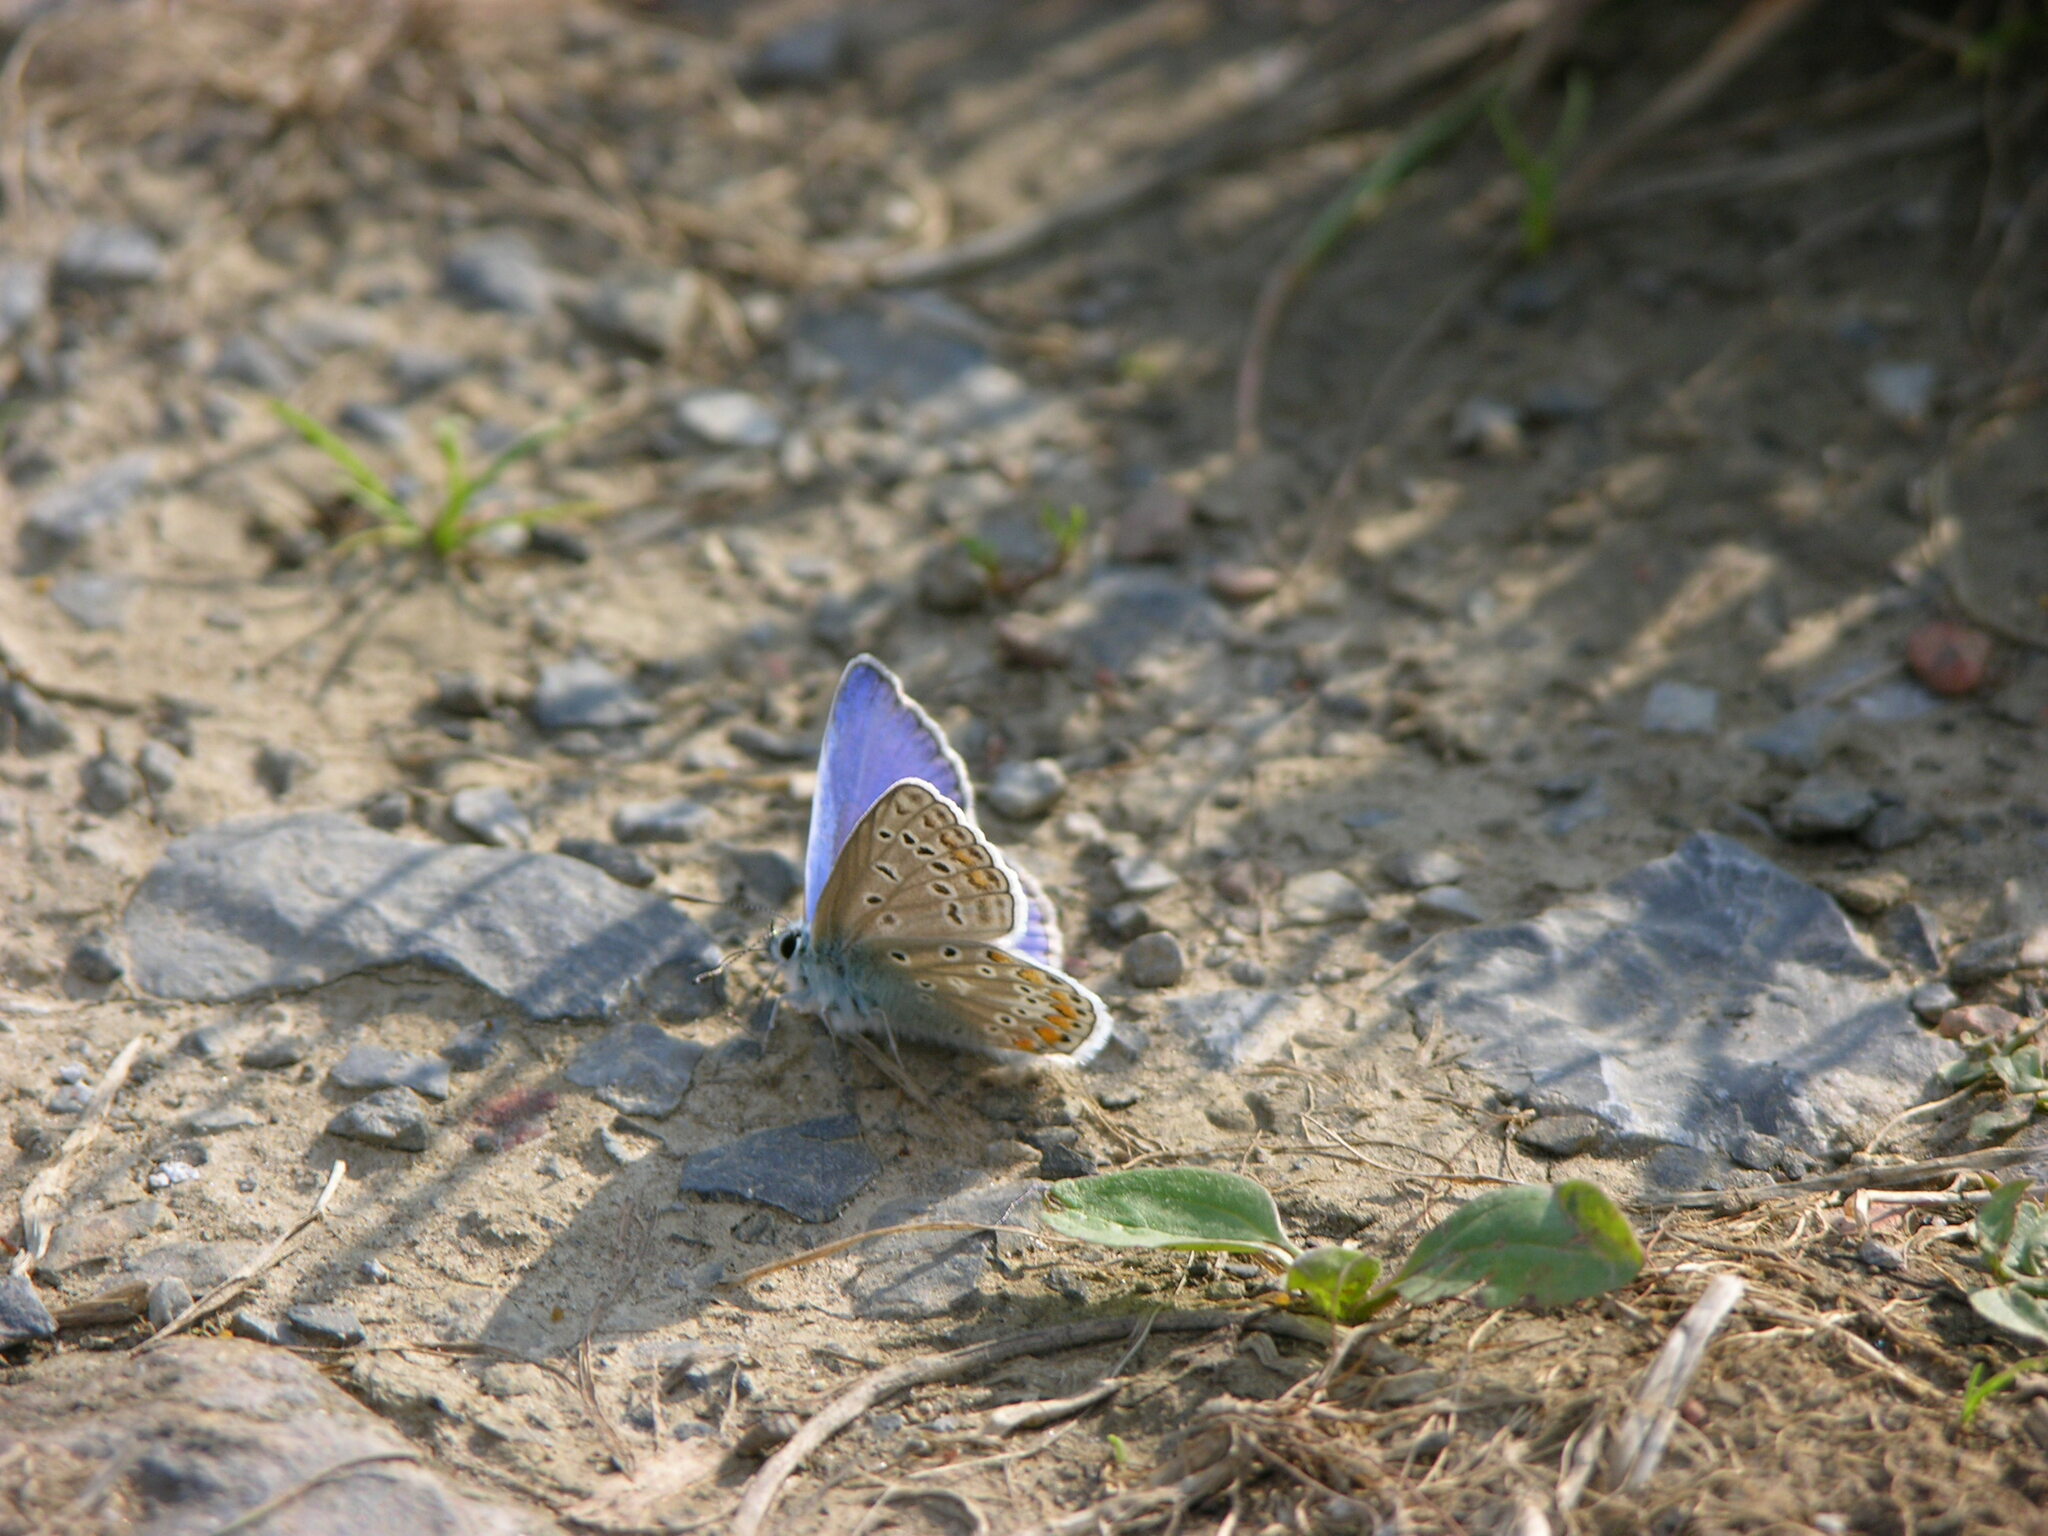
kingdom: Animalia
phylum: Arthropoda
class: Insecta
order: Lepidoptera
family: Lycaenidae
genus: Polyommatus
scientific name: Polyommatus icarus
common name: Common blue
